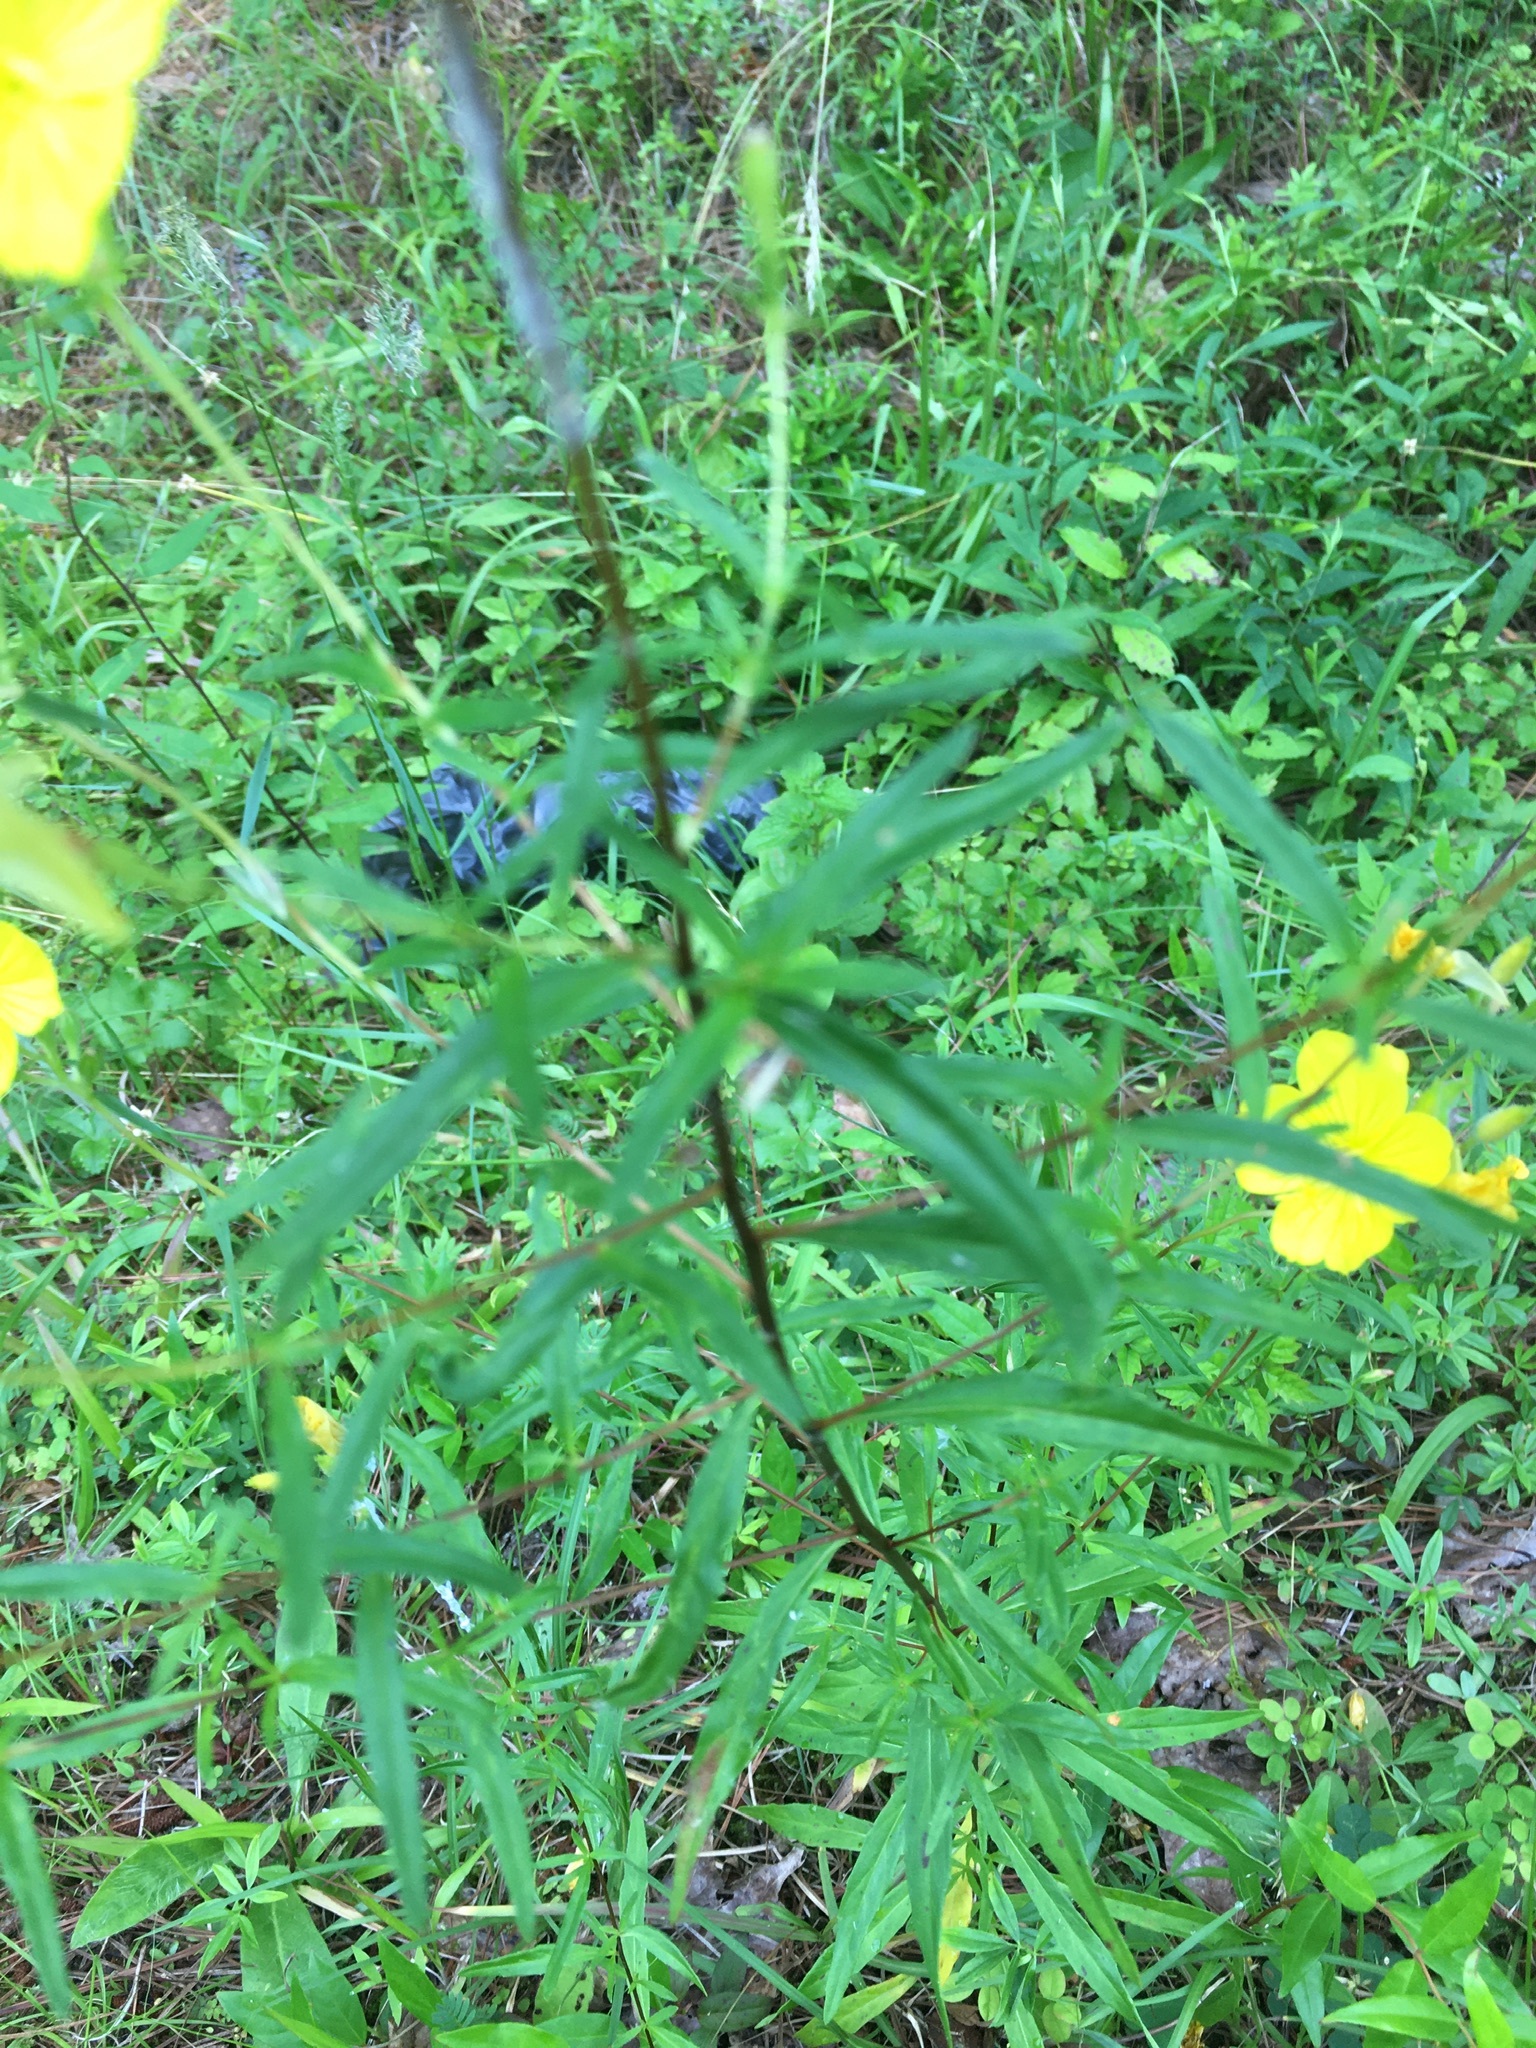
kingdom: Plantae
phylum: Tracheophyta
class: Magnoliopsida
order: Myrtales
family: Onagraceae
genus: Oenothera
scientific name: Oenothera fruticosa
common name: Southern sundrops
